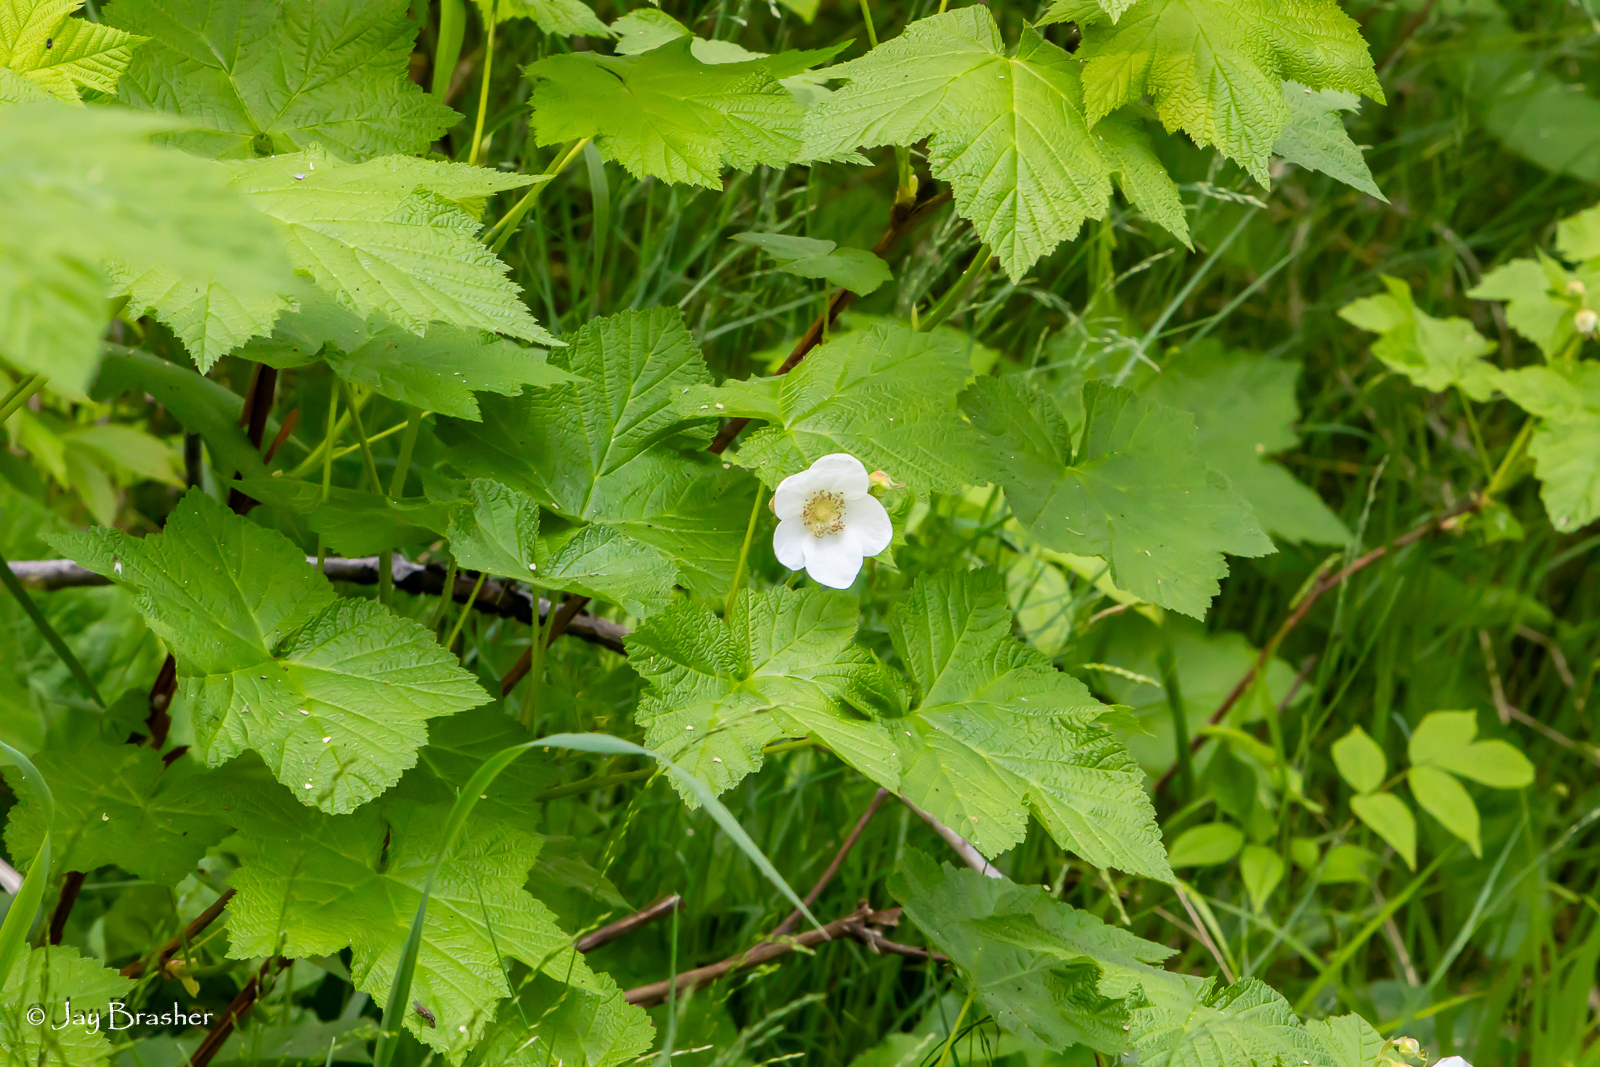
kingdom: Plantae
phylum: Tracheophyta
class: Magnoliopsida
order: Rosales
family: Rosaceae
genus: Rubus
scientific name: Rubus parviflorus
